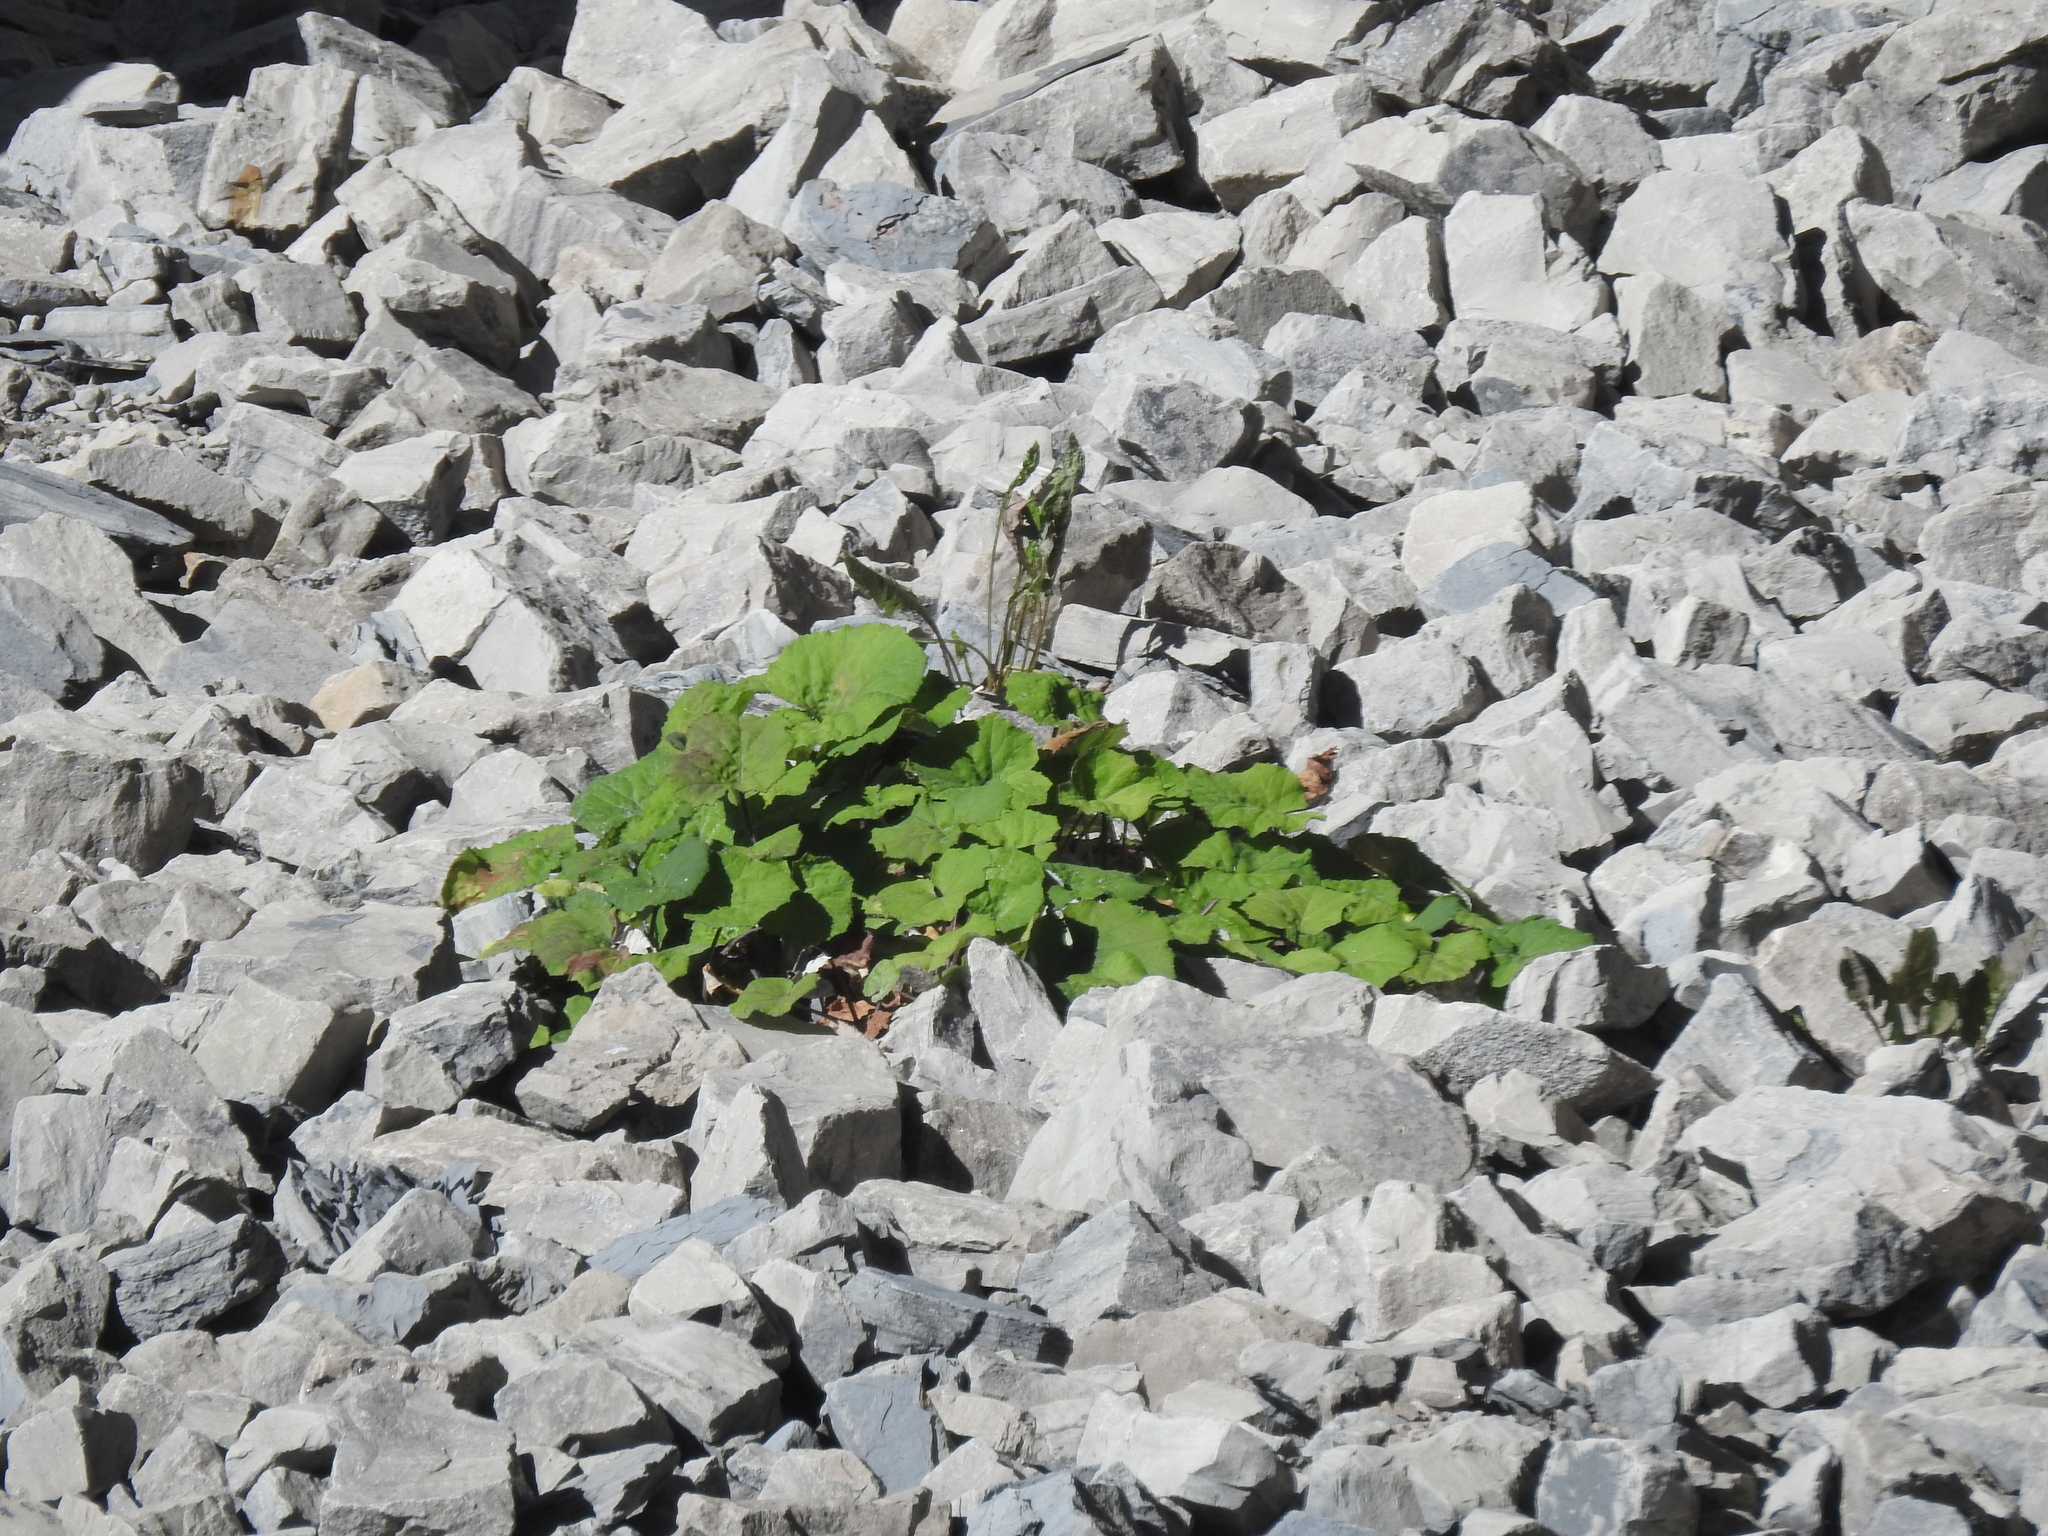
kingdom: Plantae
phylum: Tracheophyta
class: Magnoliopsida
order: Asterales
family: Asteraceae
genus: Tussilago
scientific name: Tussilago farfara
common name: Coltsfoot
